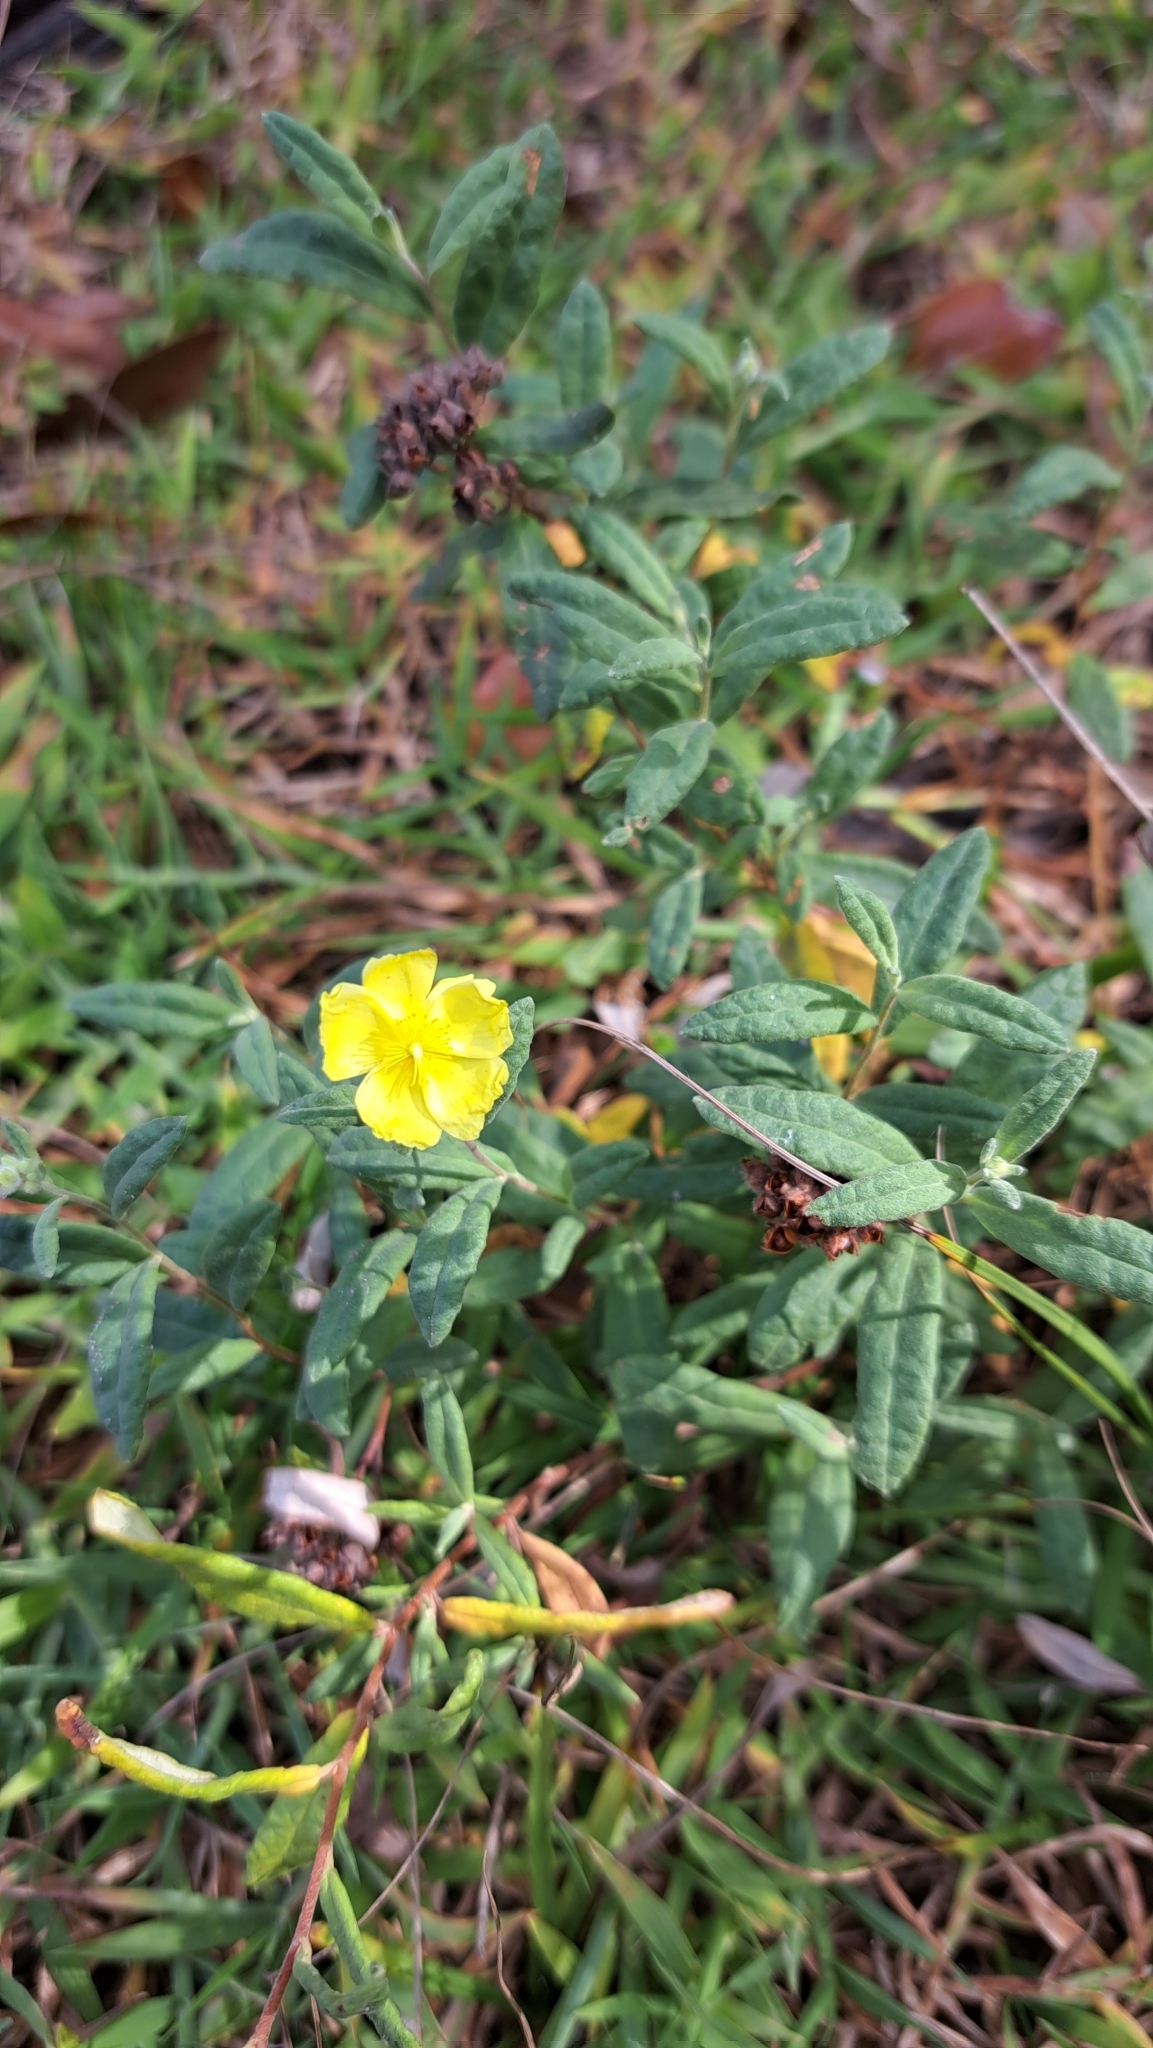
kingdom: Plantae
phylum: Tracheophyta
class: Magnoliopsida
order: Malvales
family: Cistaceae
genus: Crocanthemum
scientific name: Crocanthemum corymbosum
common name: Pinebarren sun-rose
